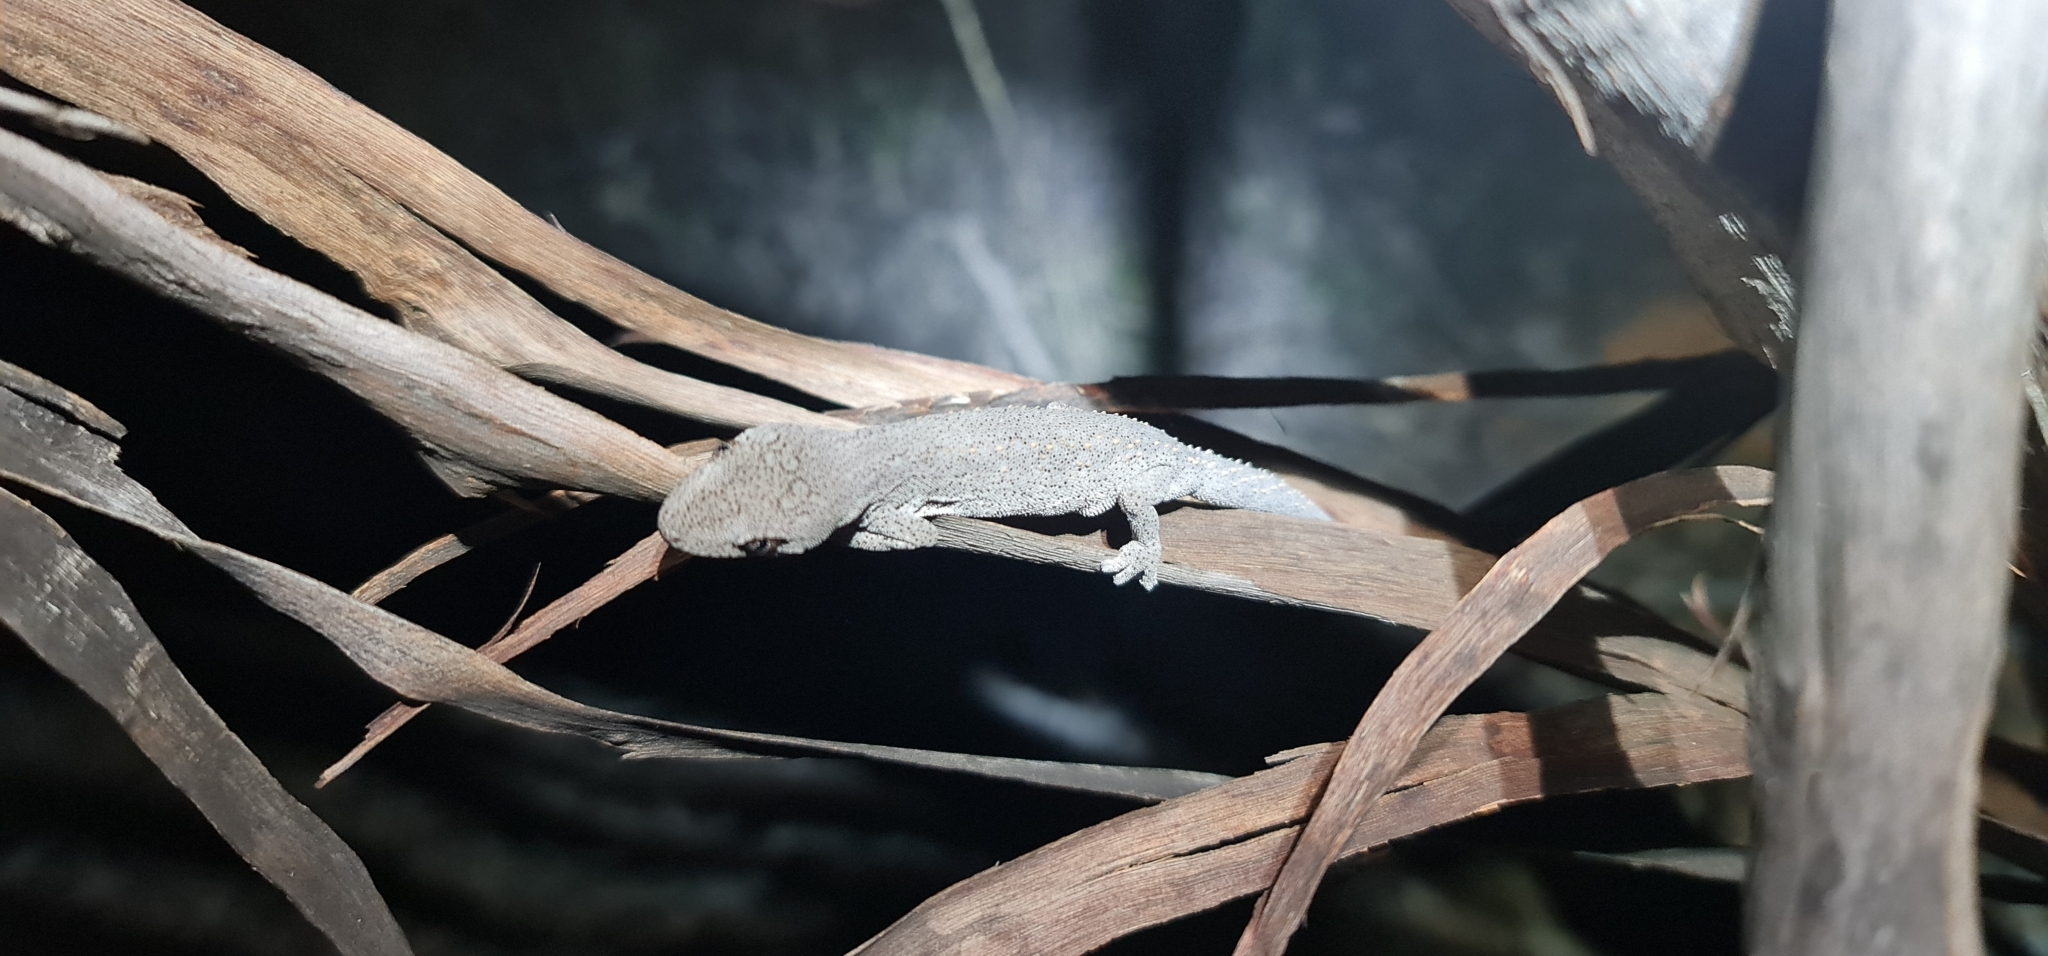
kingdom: Animalia
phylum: Chordata
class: Squamata
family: Diplodactylidae
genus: Strophurus
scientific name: Strophurus williamsi
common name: Eastern spiny-tailed gecko
